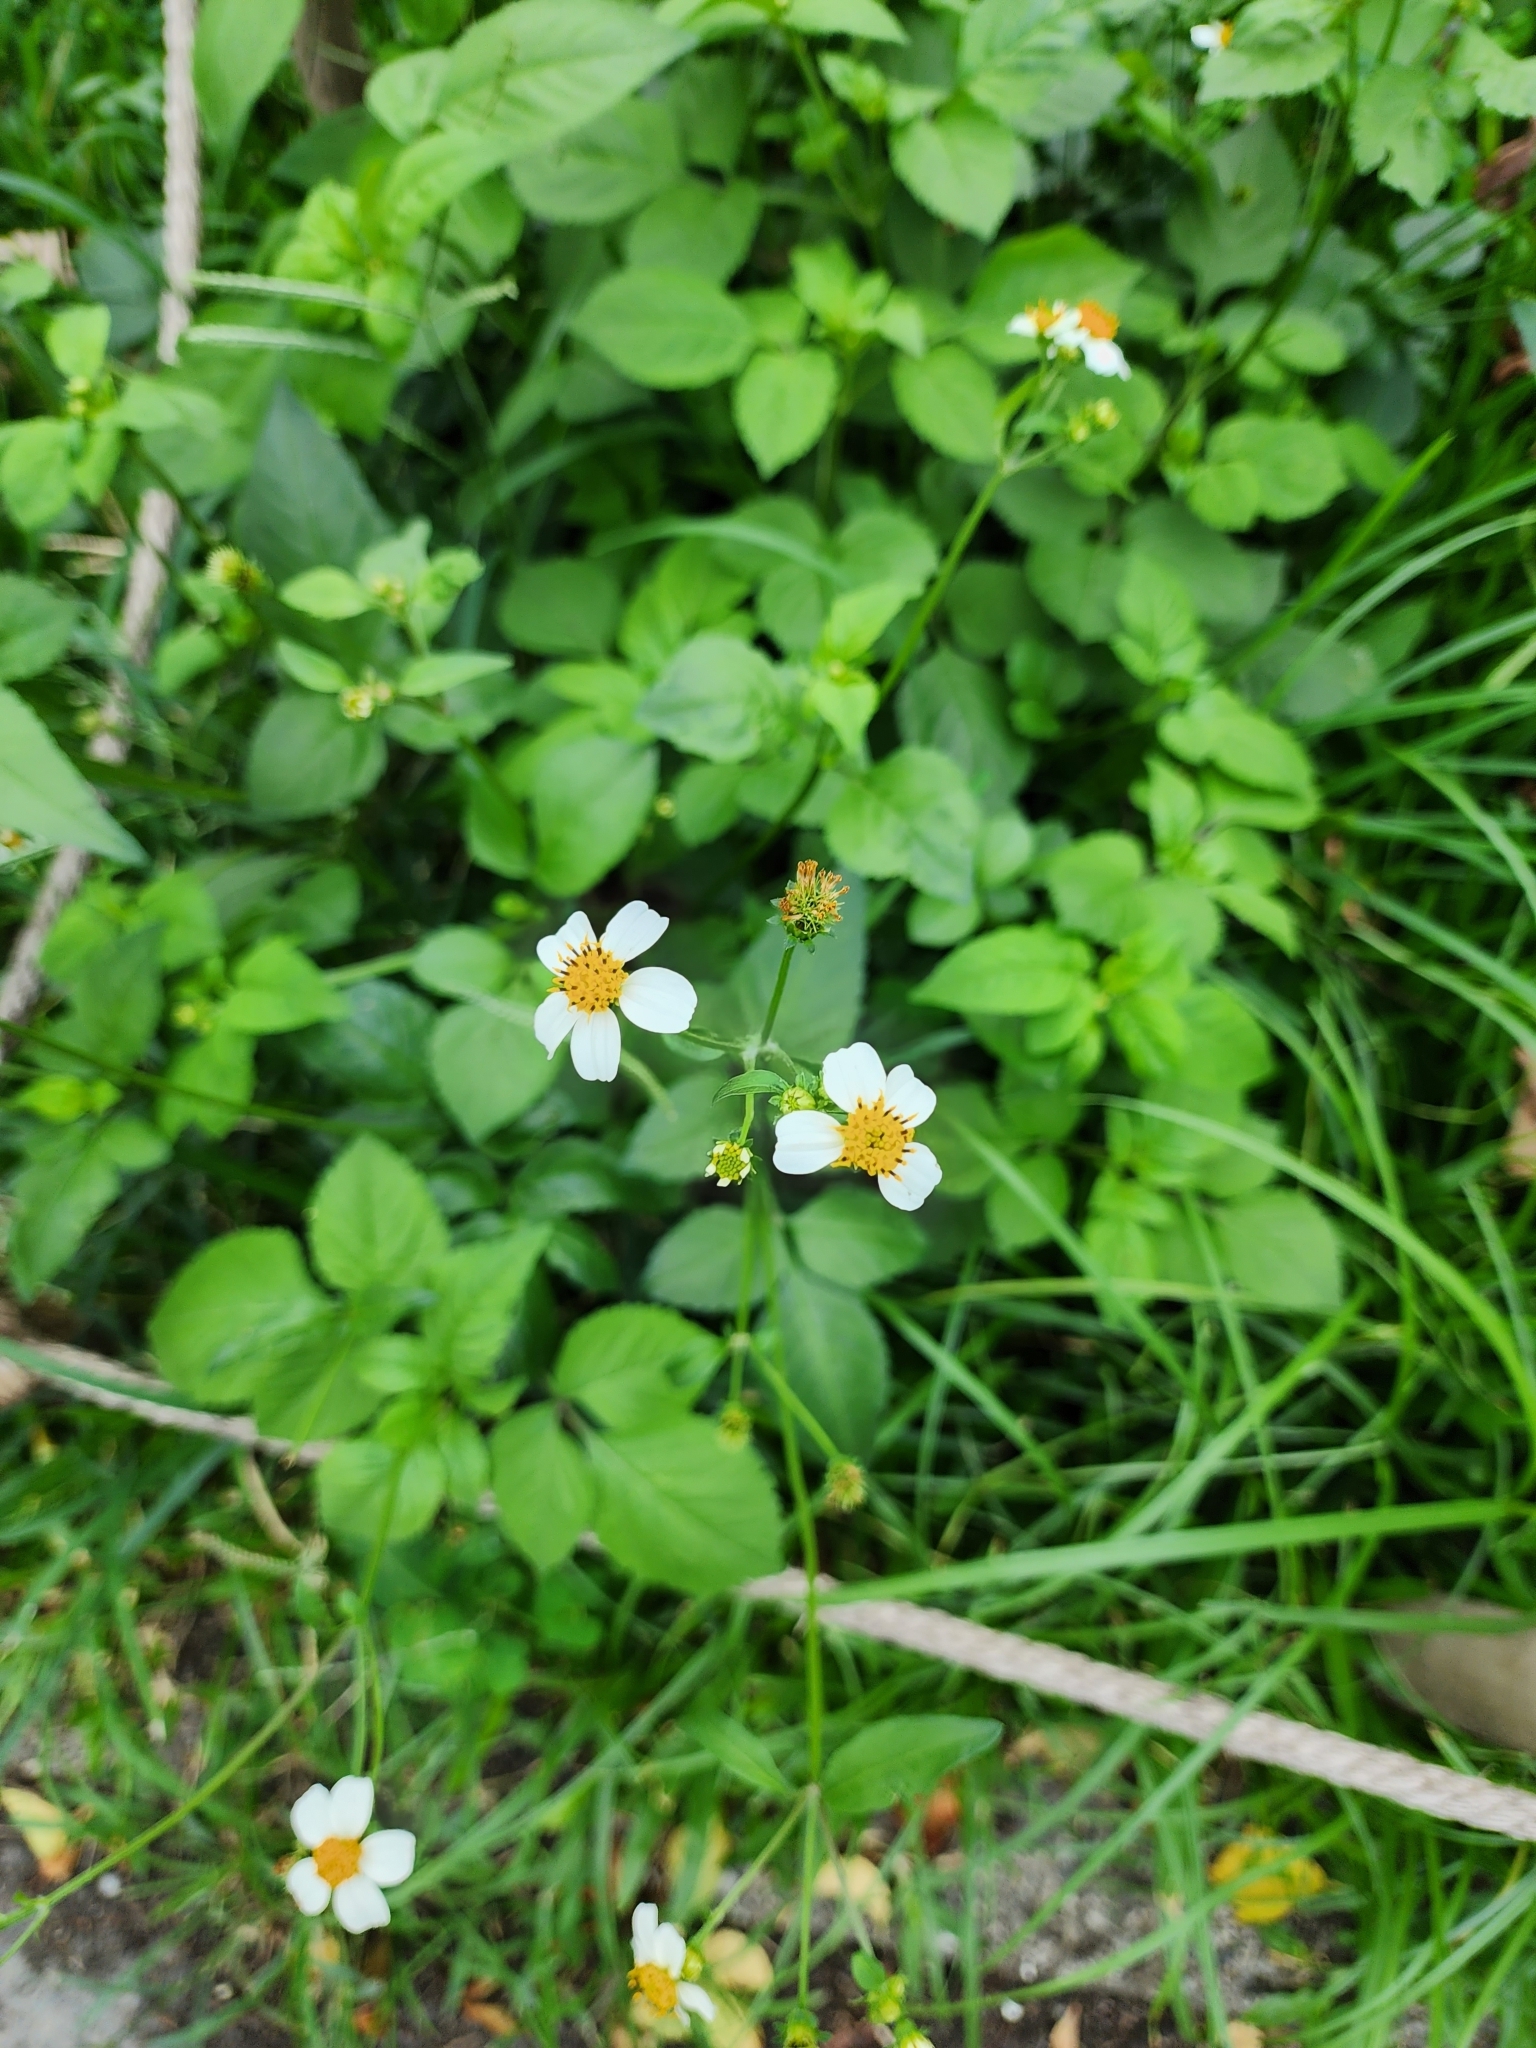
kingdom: Plantae
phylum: Tracheophyta
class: Magnoliopsida
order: Asterales
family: Asteraceae
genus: Bidens
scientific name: Bidens alba
